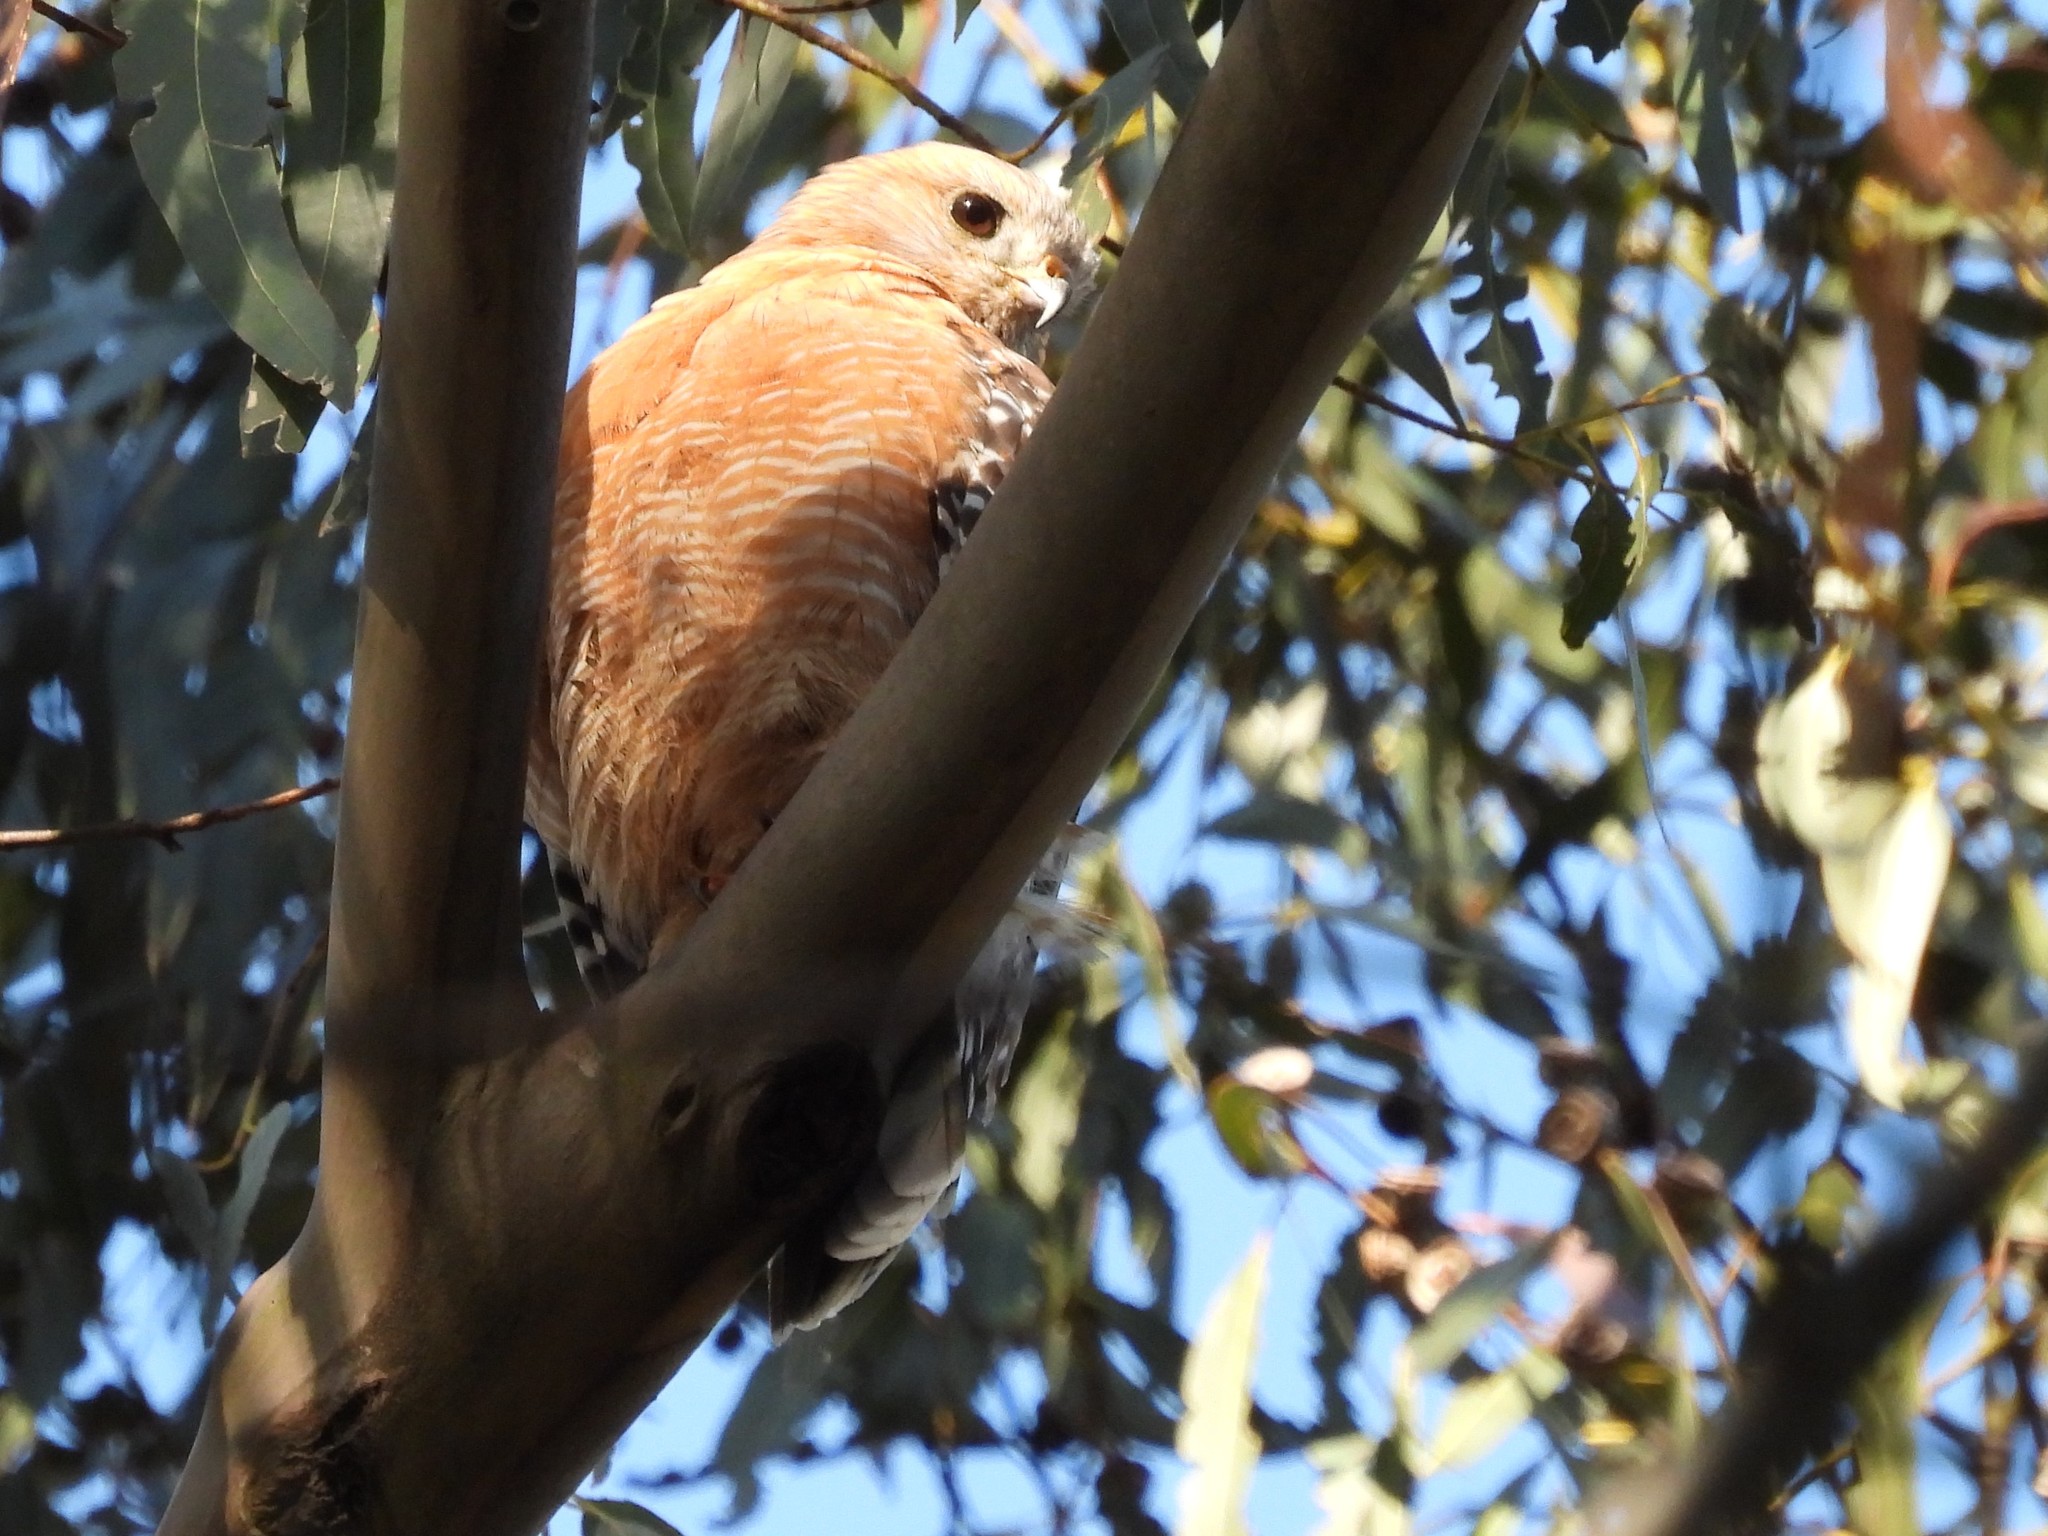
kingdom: Animalia
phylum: Chordata
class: Aves
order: Accipitriformes
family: Accipitridae
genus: Buteo
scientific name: Buteo lineatus
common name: Red-shouldered hawk
